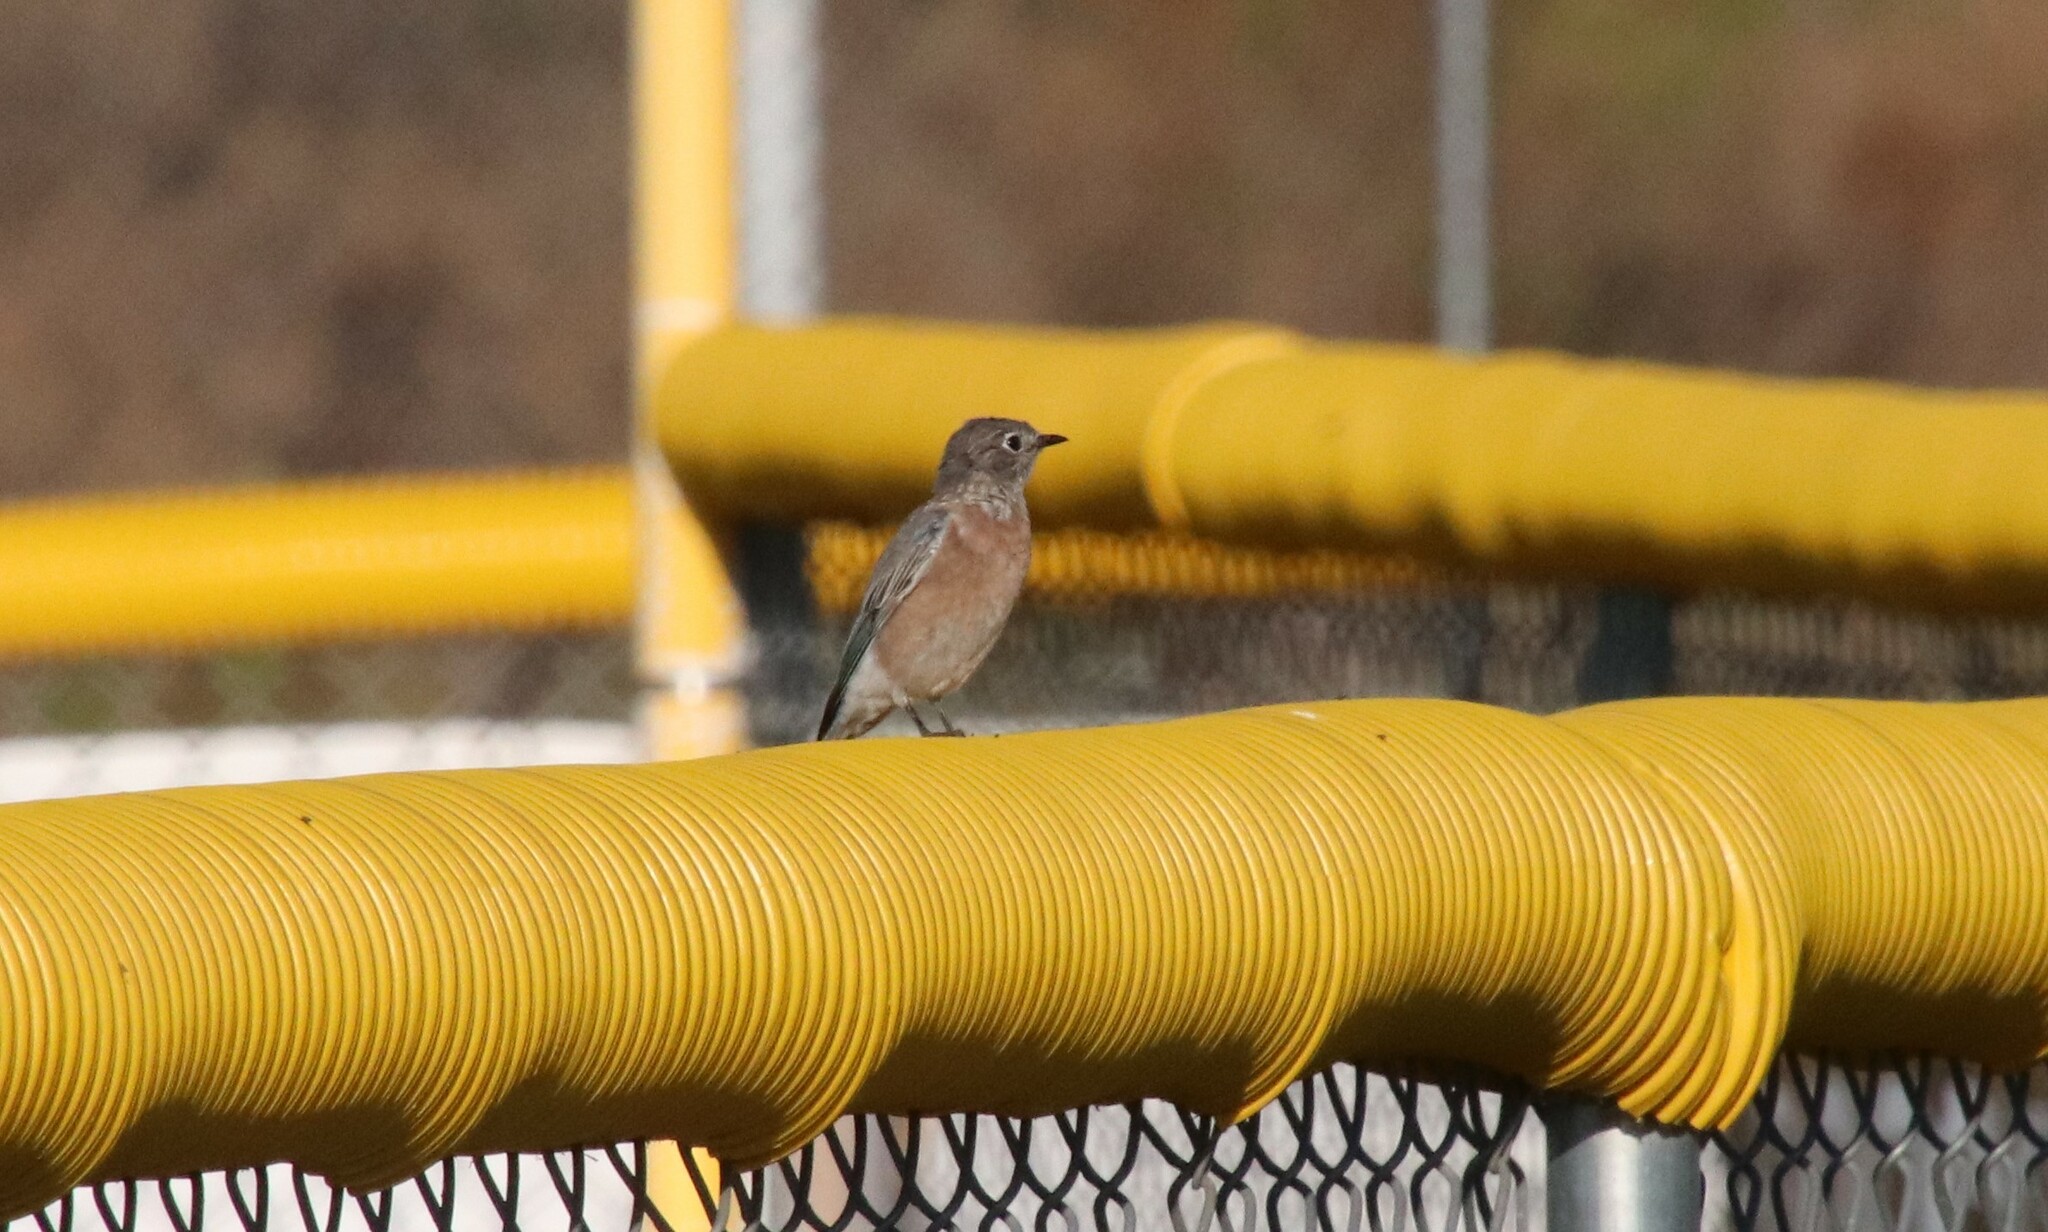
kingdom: Animalia
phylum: Chordata
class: Aves
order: Passeriformes
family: Turdidae
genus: Sialia
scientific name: Sialia mexicana
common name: Western bluebird
